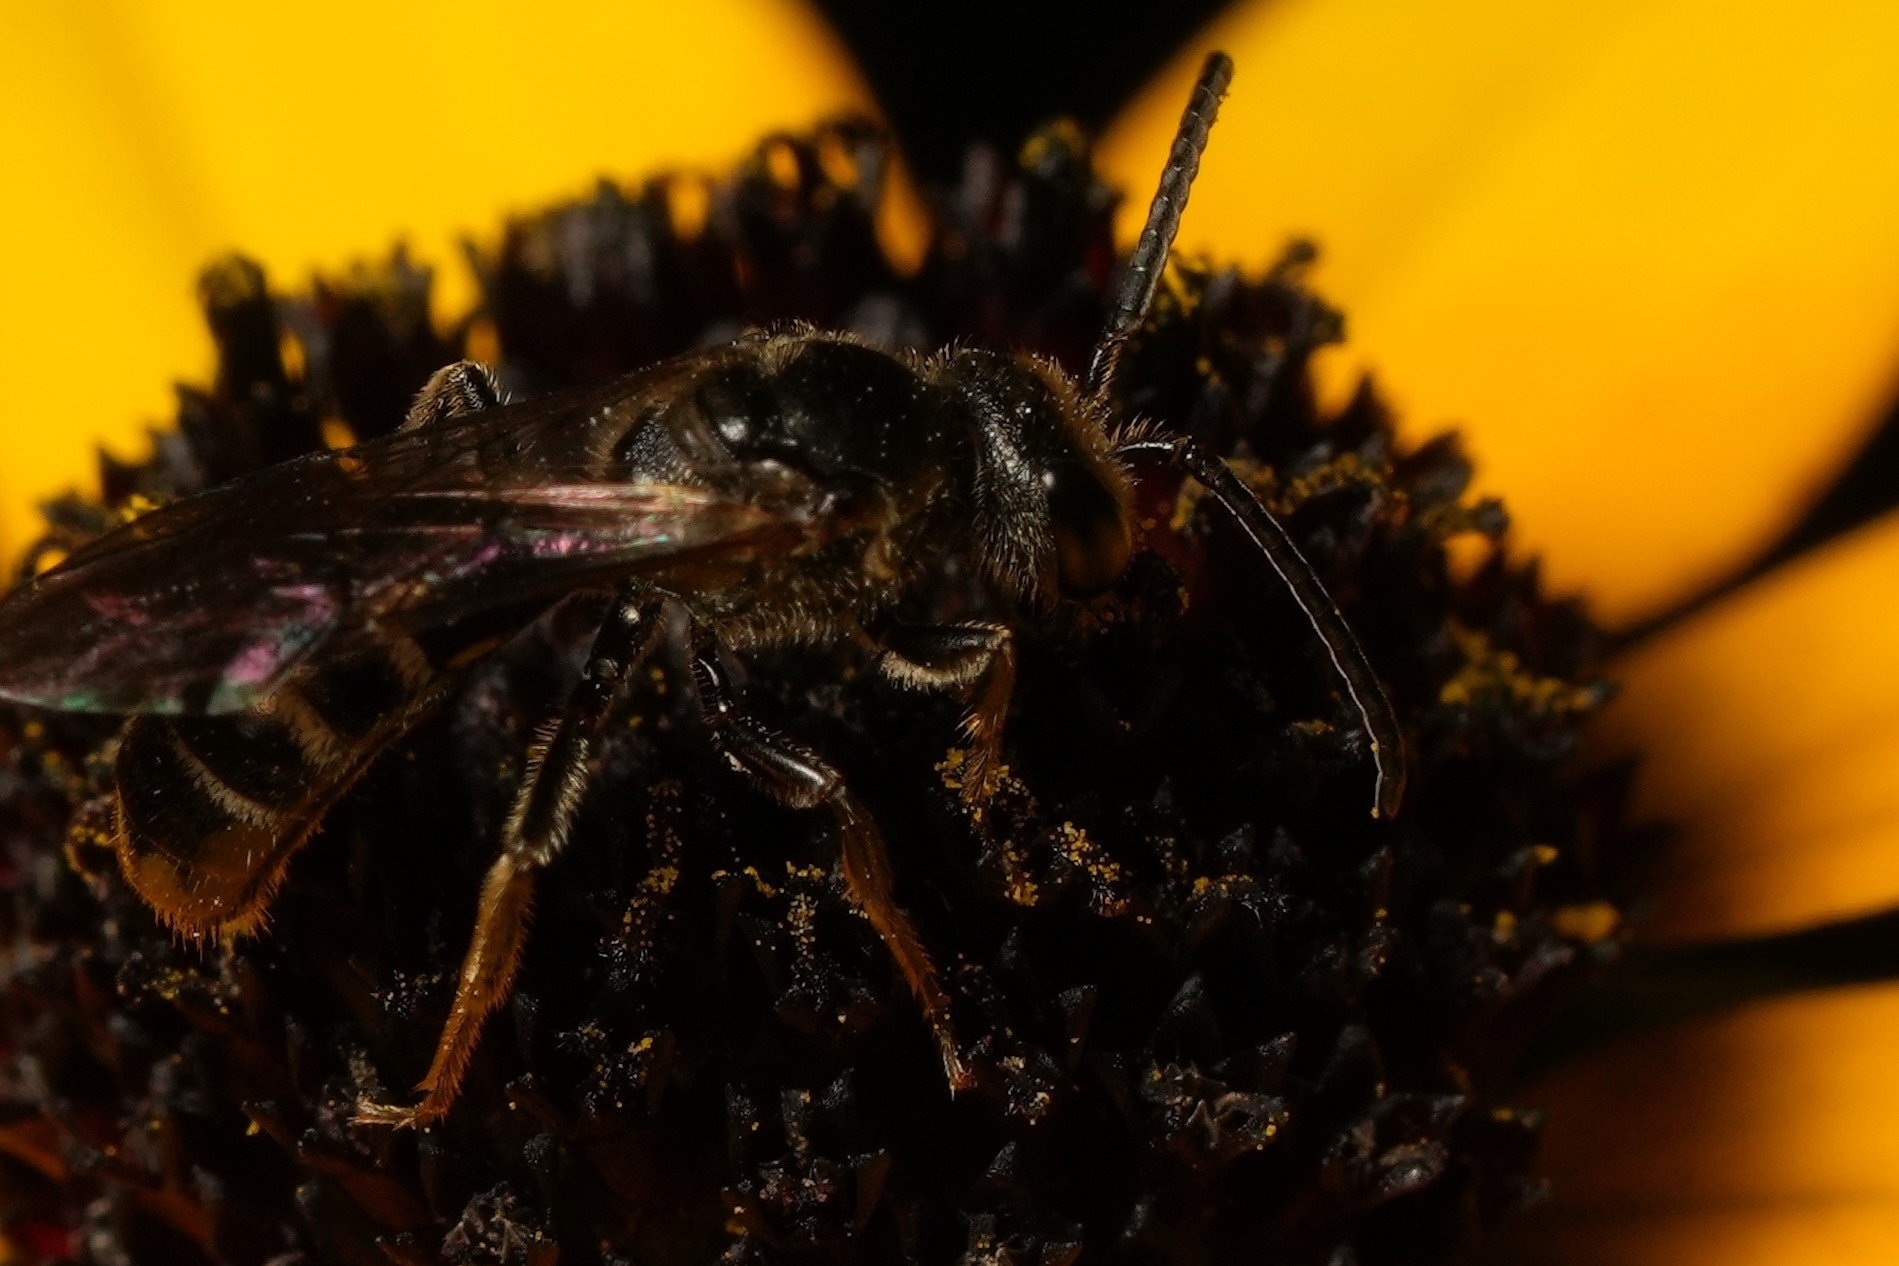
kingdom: Animalia
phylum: Arthropoda
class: Insecta
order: Hymenoptera
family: Halictidae
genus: Lasioglossum
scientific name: Lasioglossum fuscipenne
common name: Brown-winged sweat bee
